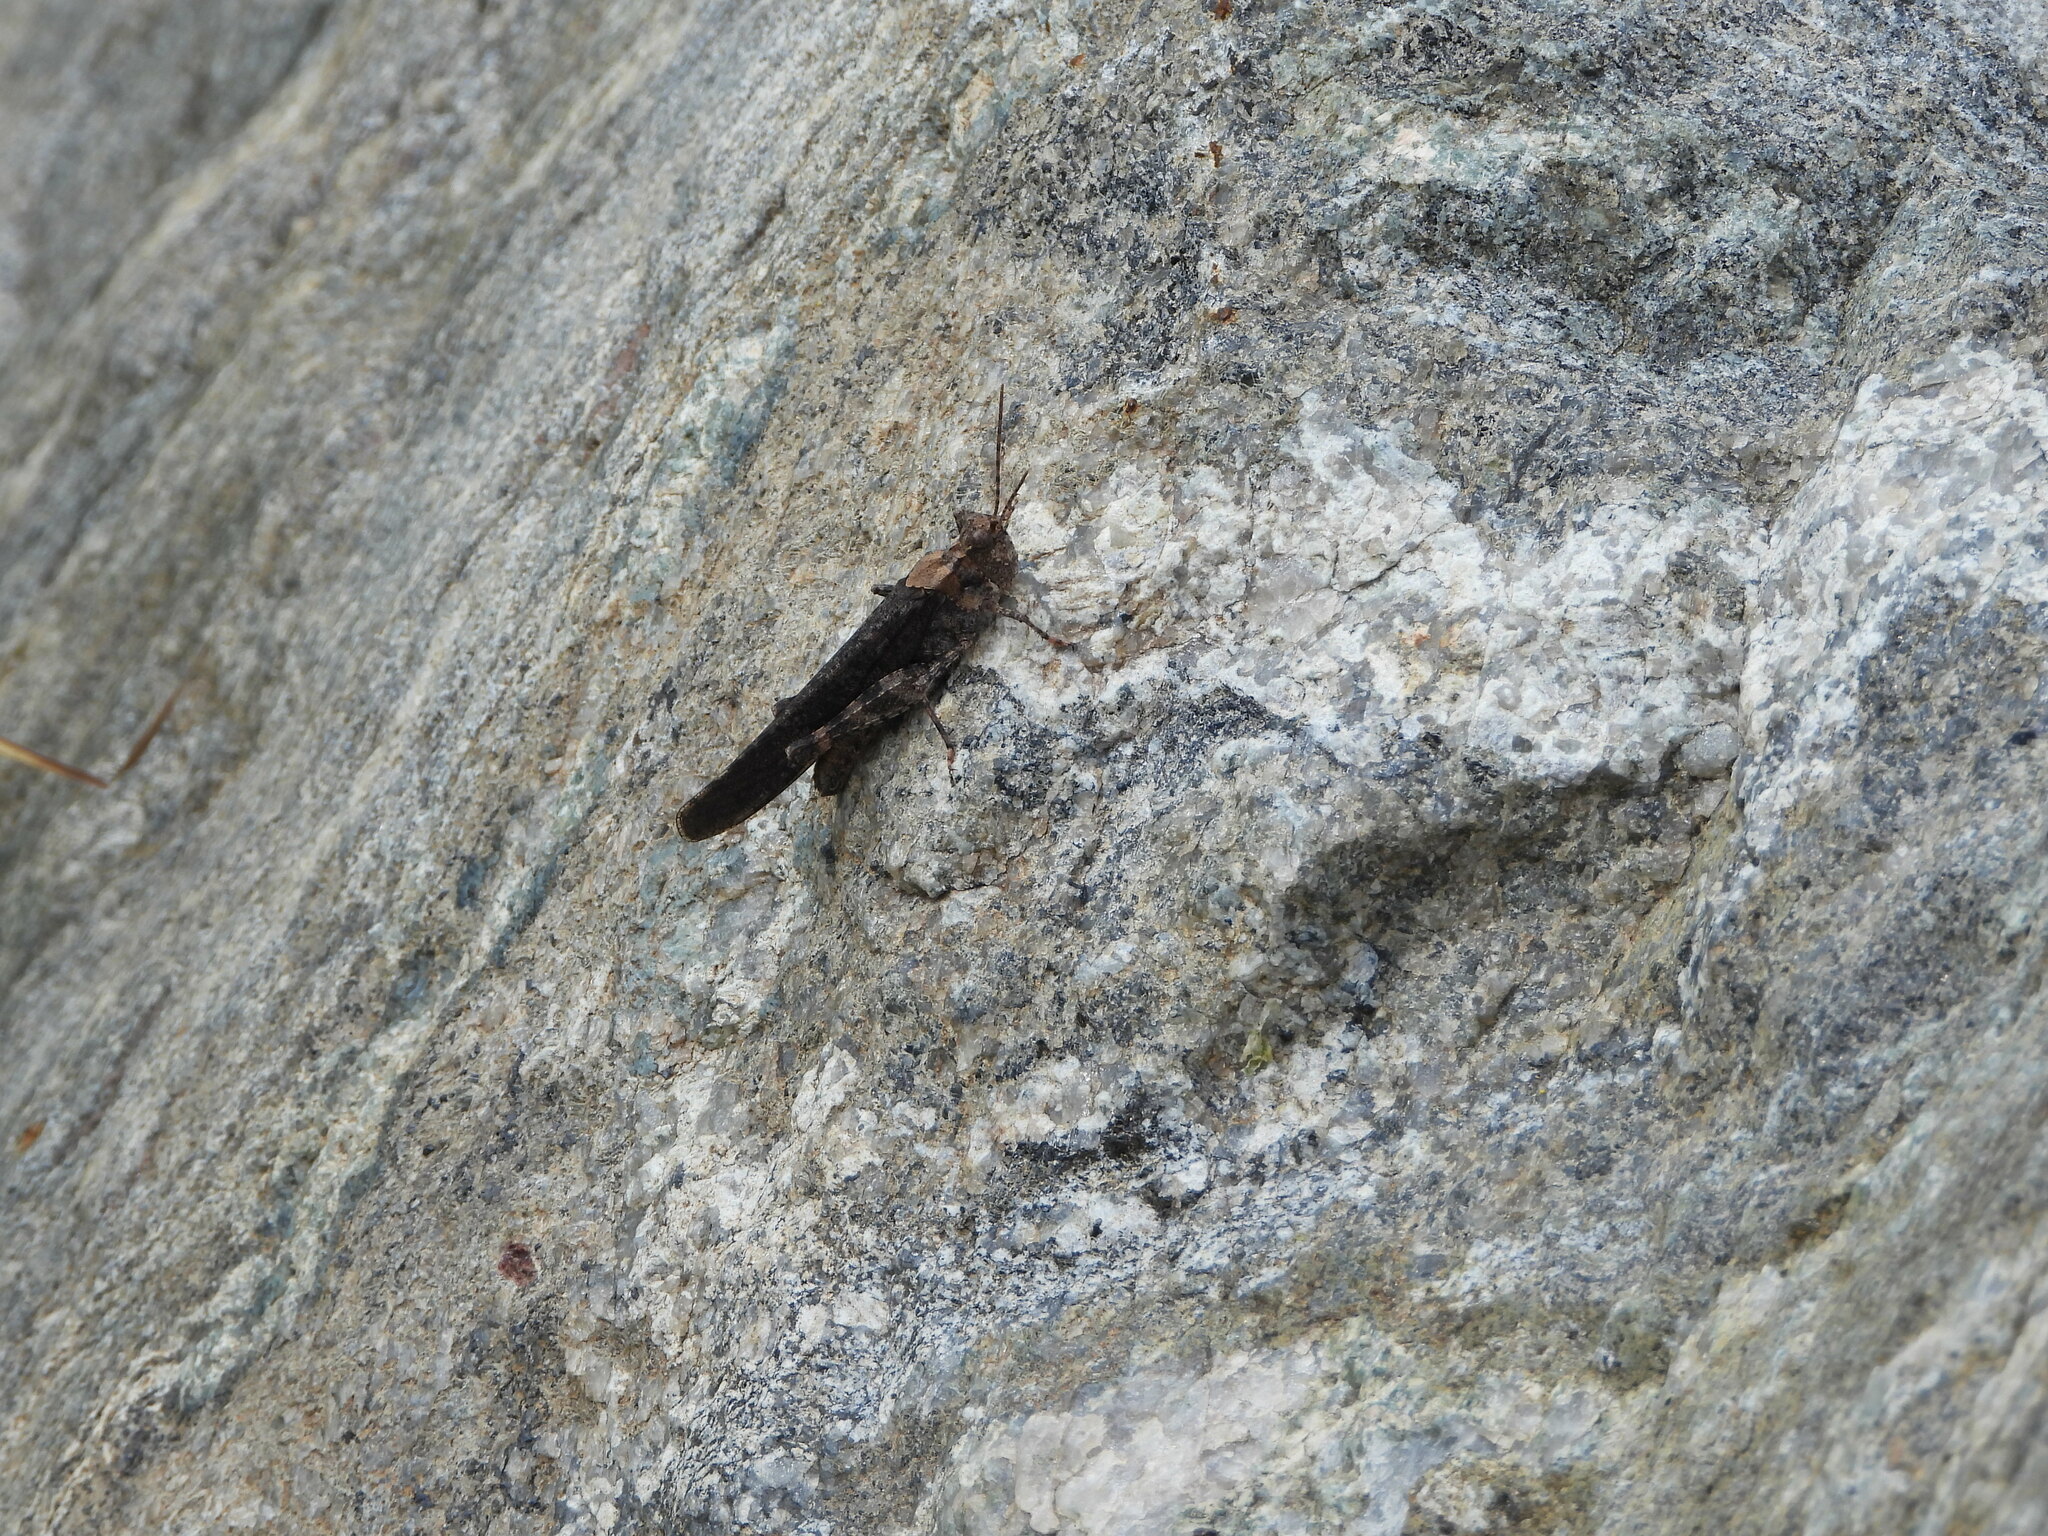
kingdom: Animalia
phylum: Arthropoda
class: Insecta
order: Orthoptera
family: Acrididae
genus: Trimerotropis
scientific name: Trimerotropis verruculata
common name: Crackling forest grasshopper
